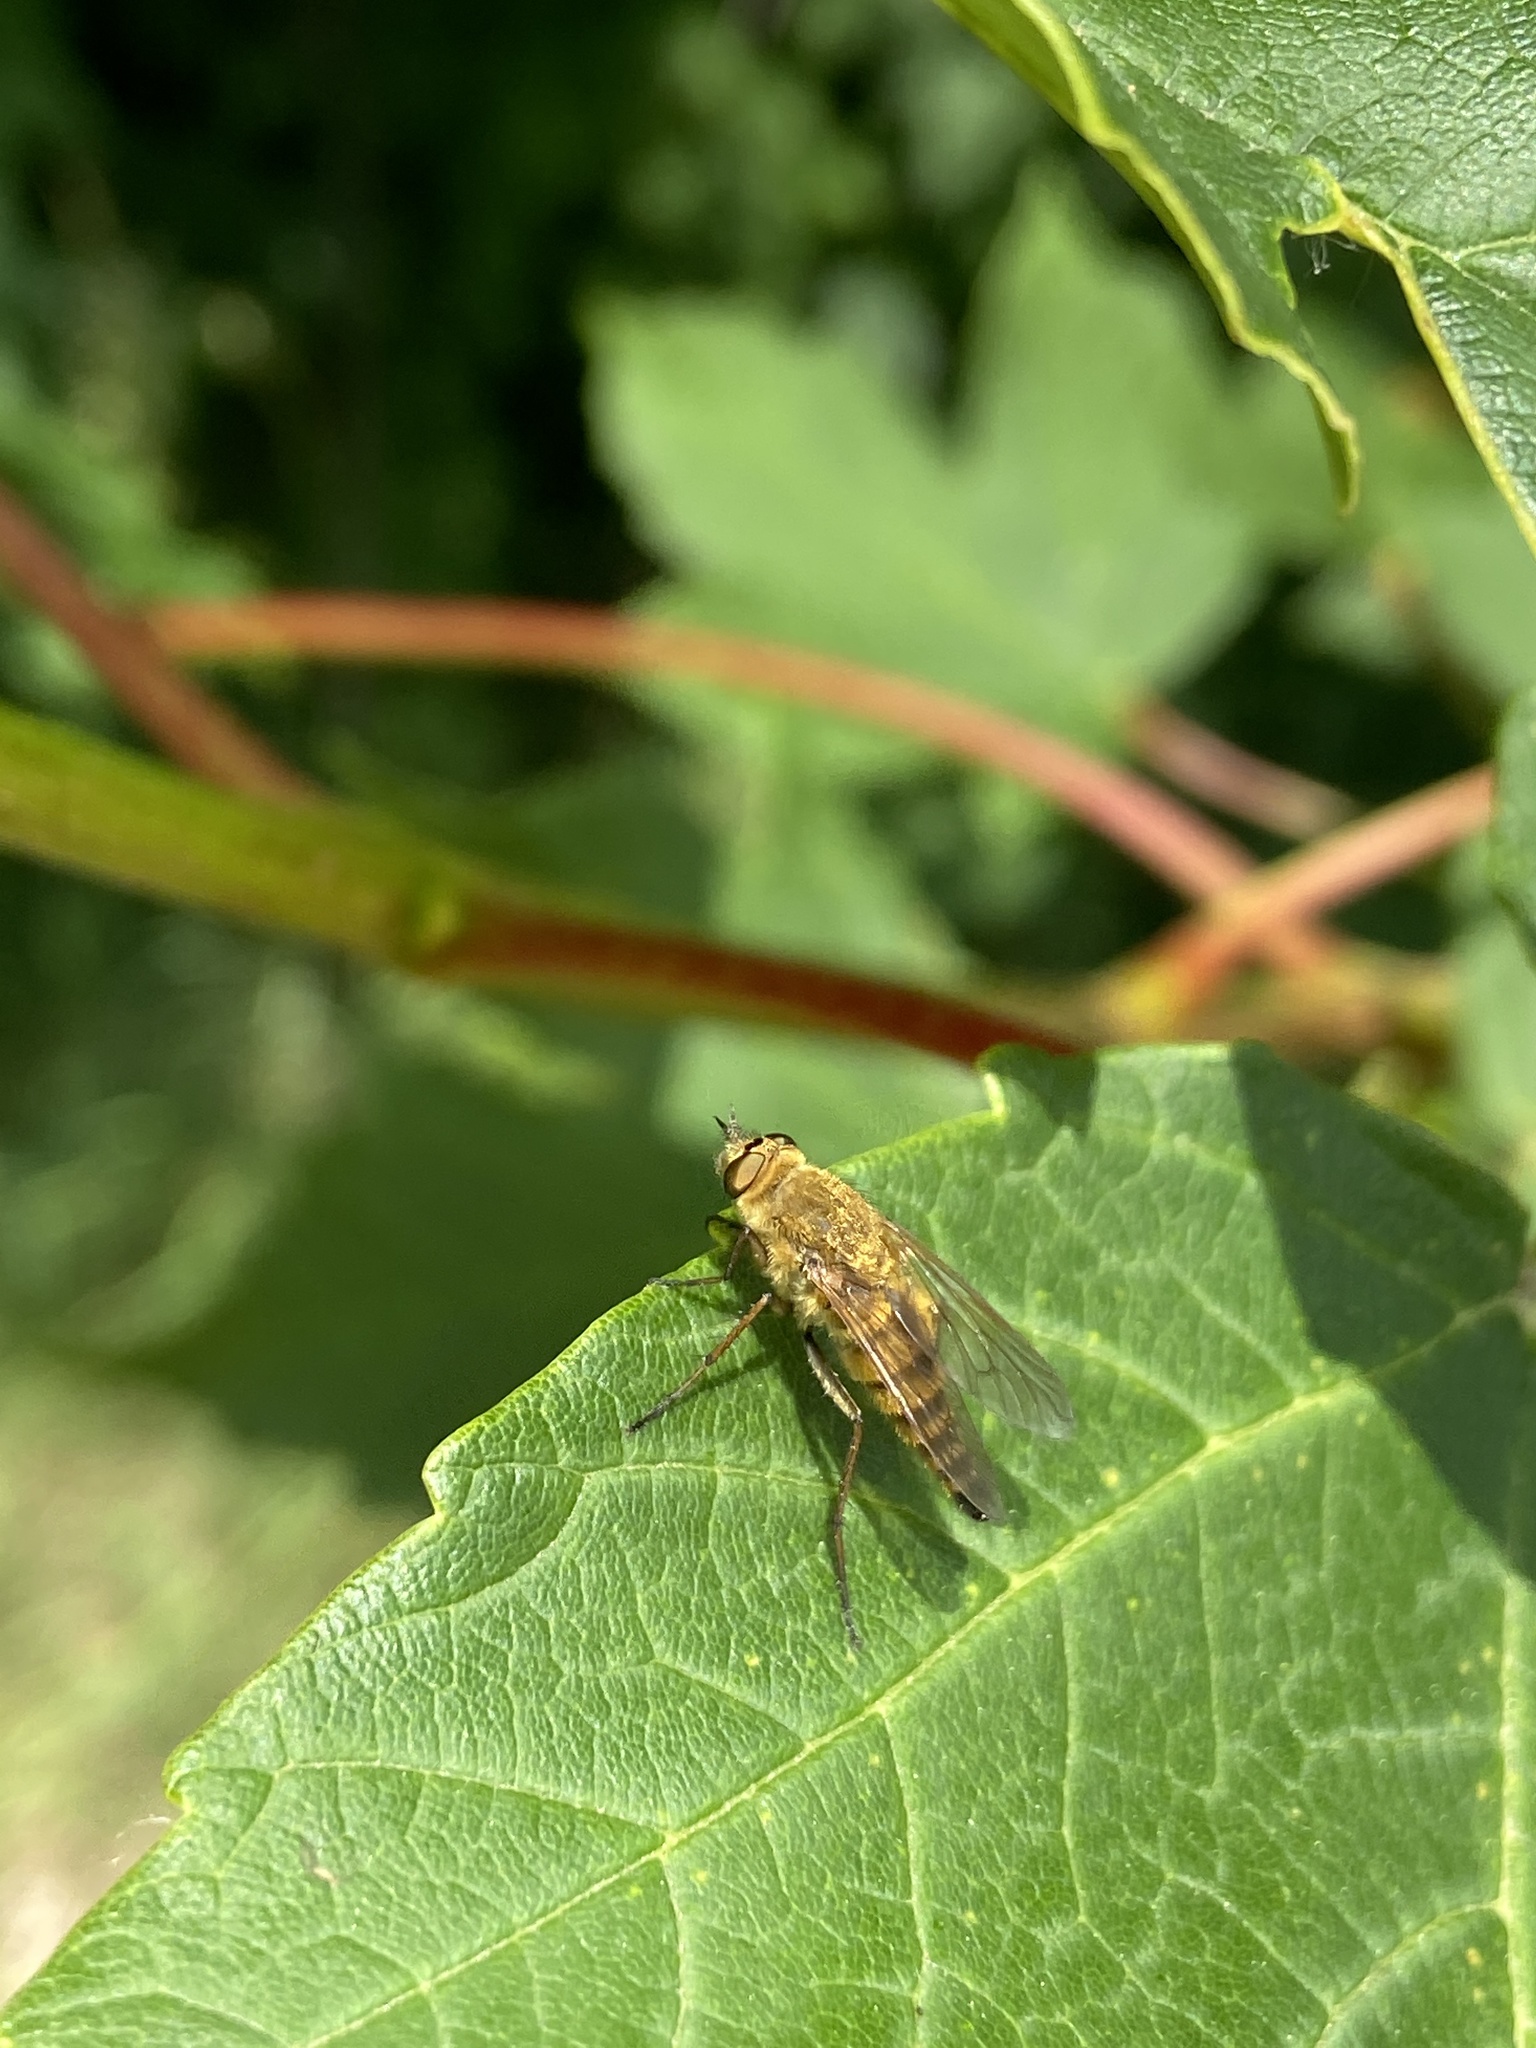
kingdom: Animalia
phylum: Arthropoda
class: Insecta
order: Diptera
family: Therevidae
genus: Thereva
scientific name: Thereva nobilitata
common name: Common stiletto
